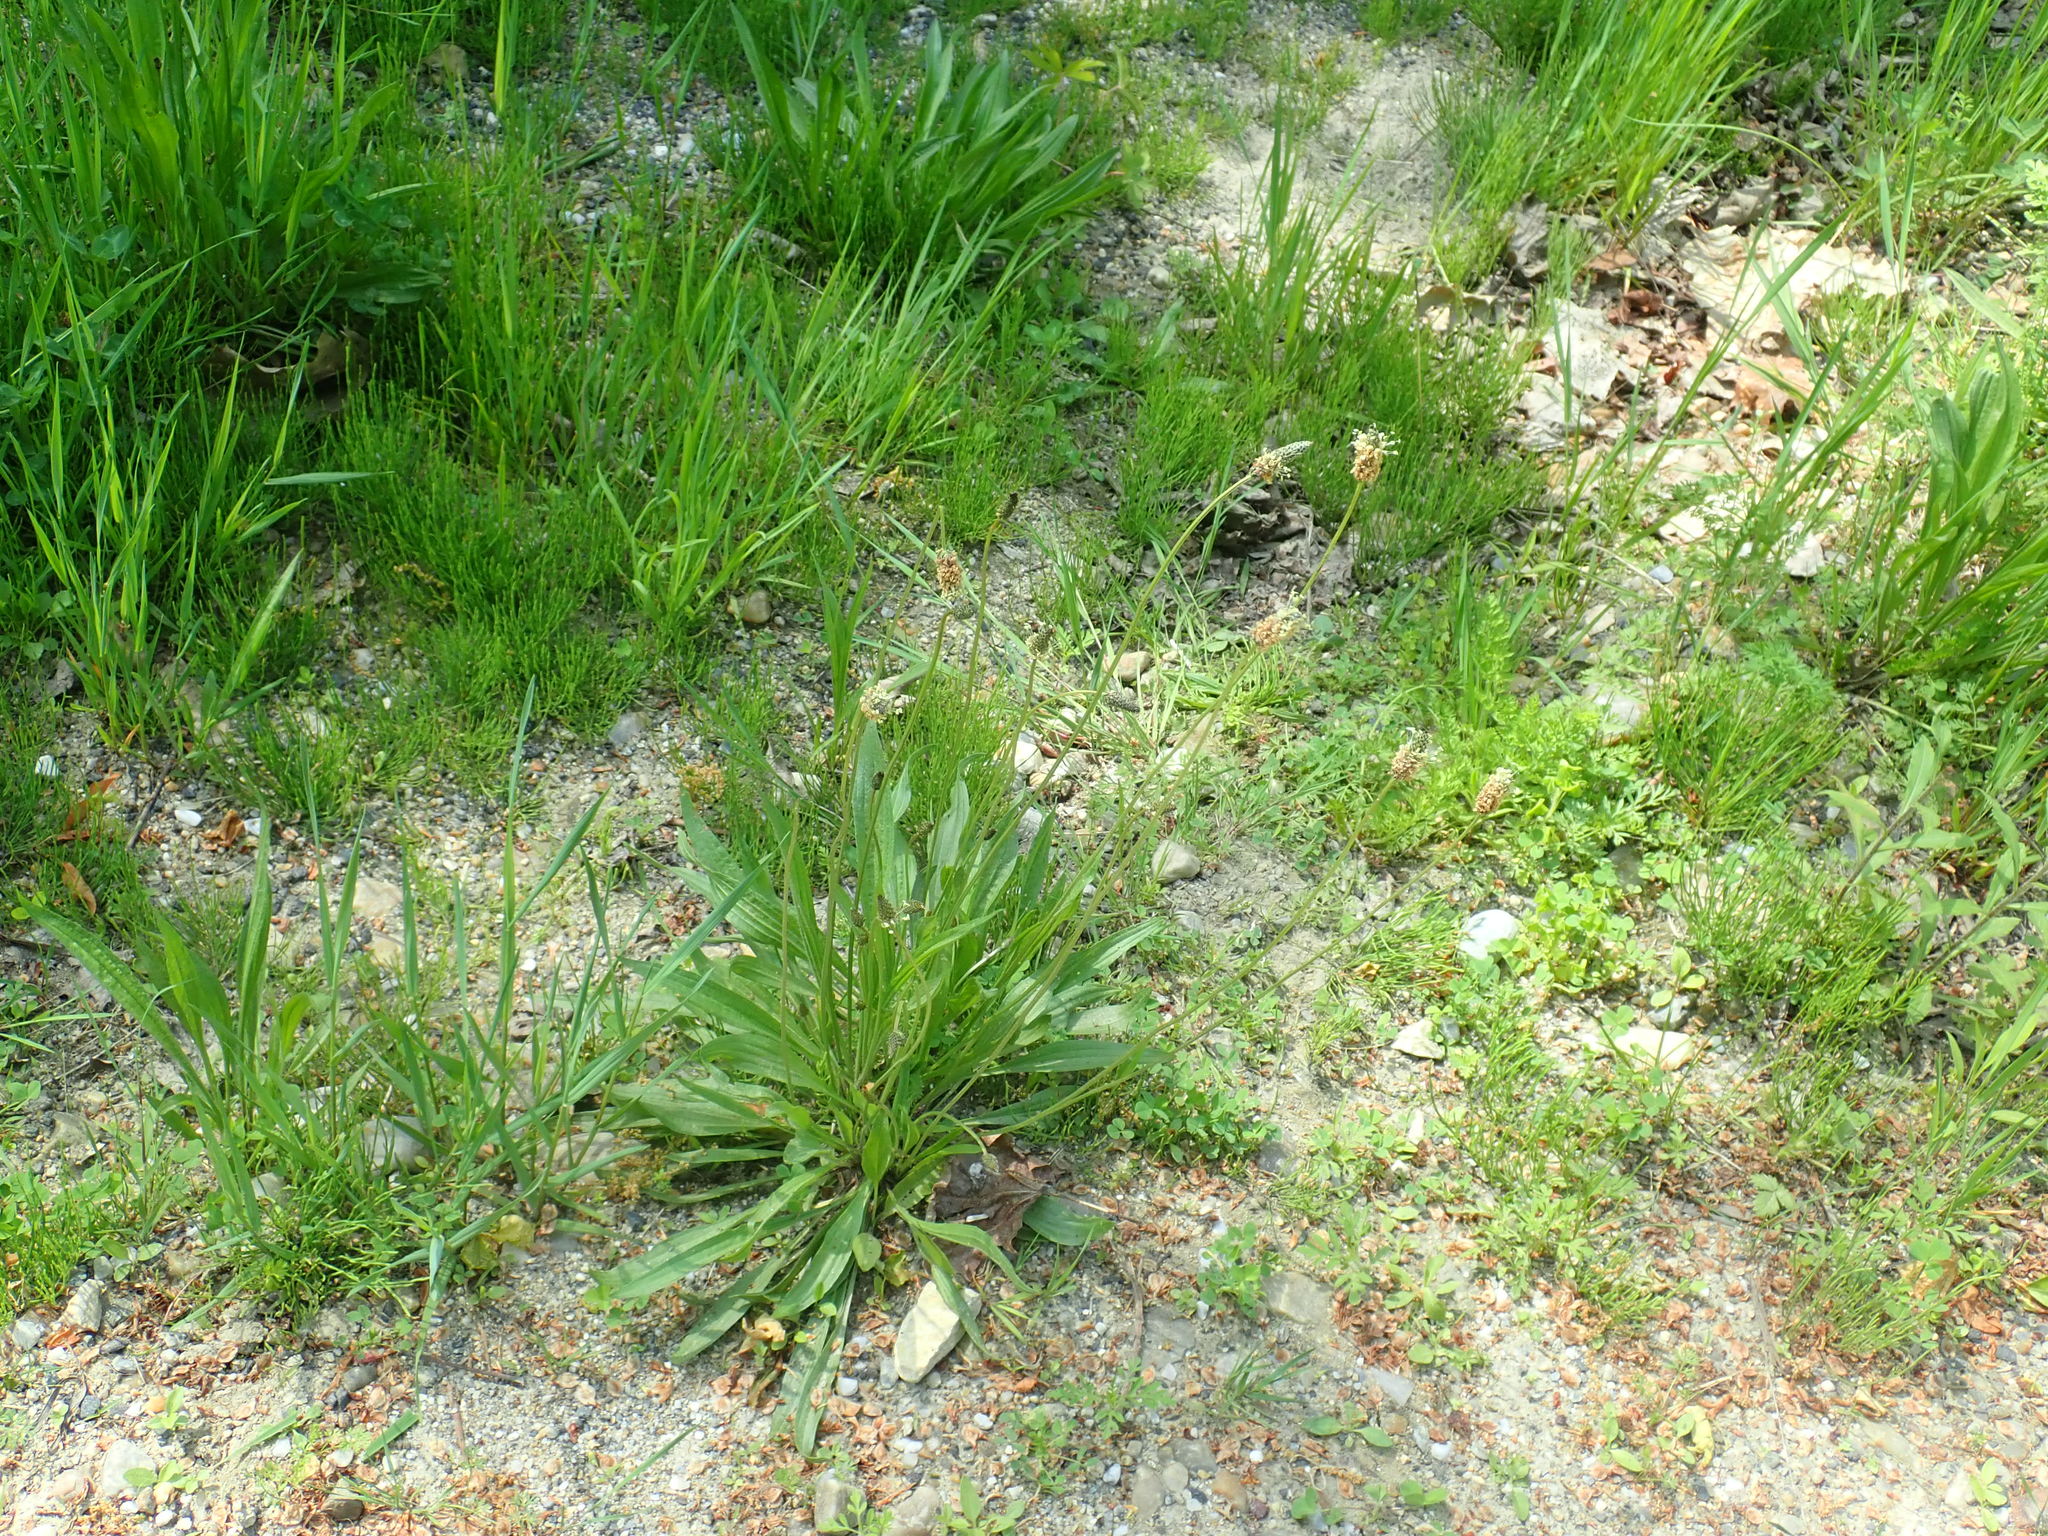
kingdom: Plantae
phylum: Tracheophyta
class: Magnoliopsida
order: Lamiales
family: Plantaginaceae
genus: Plantago
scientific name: Plantago lanceolata
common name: Ribwort plantain
